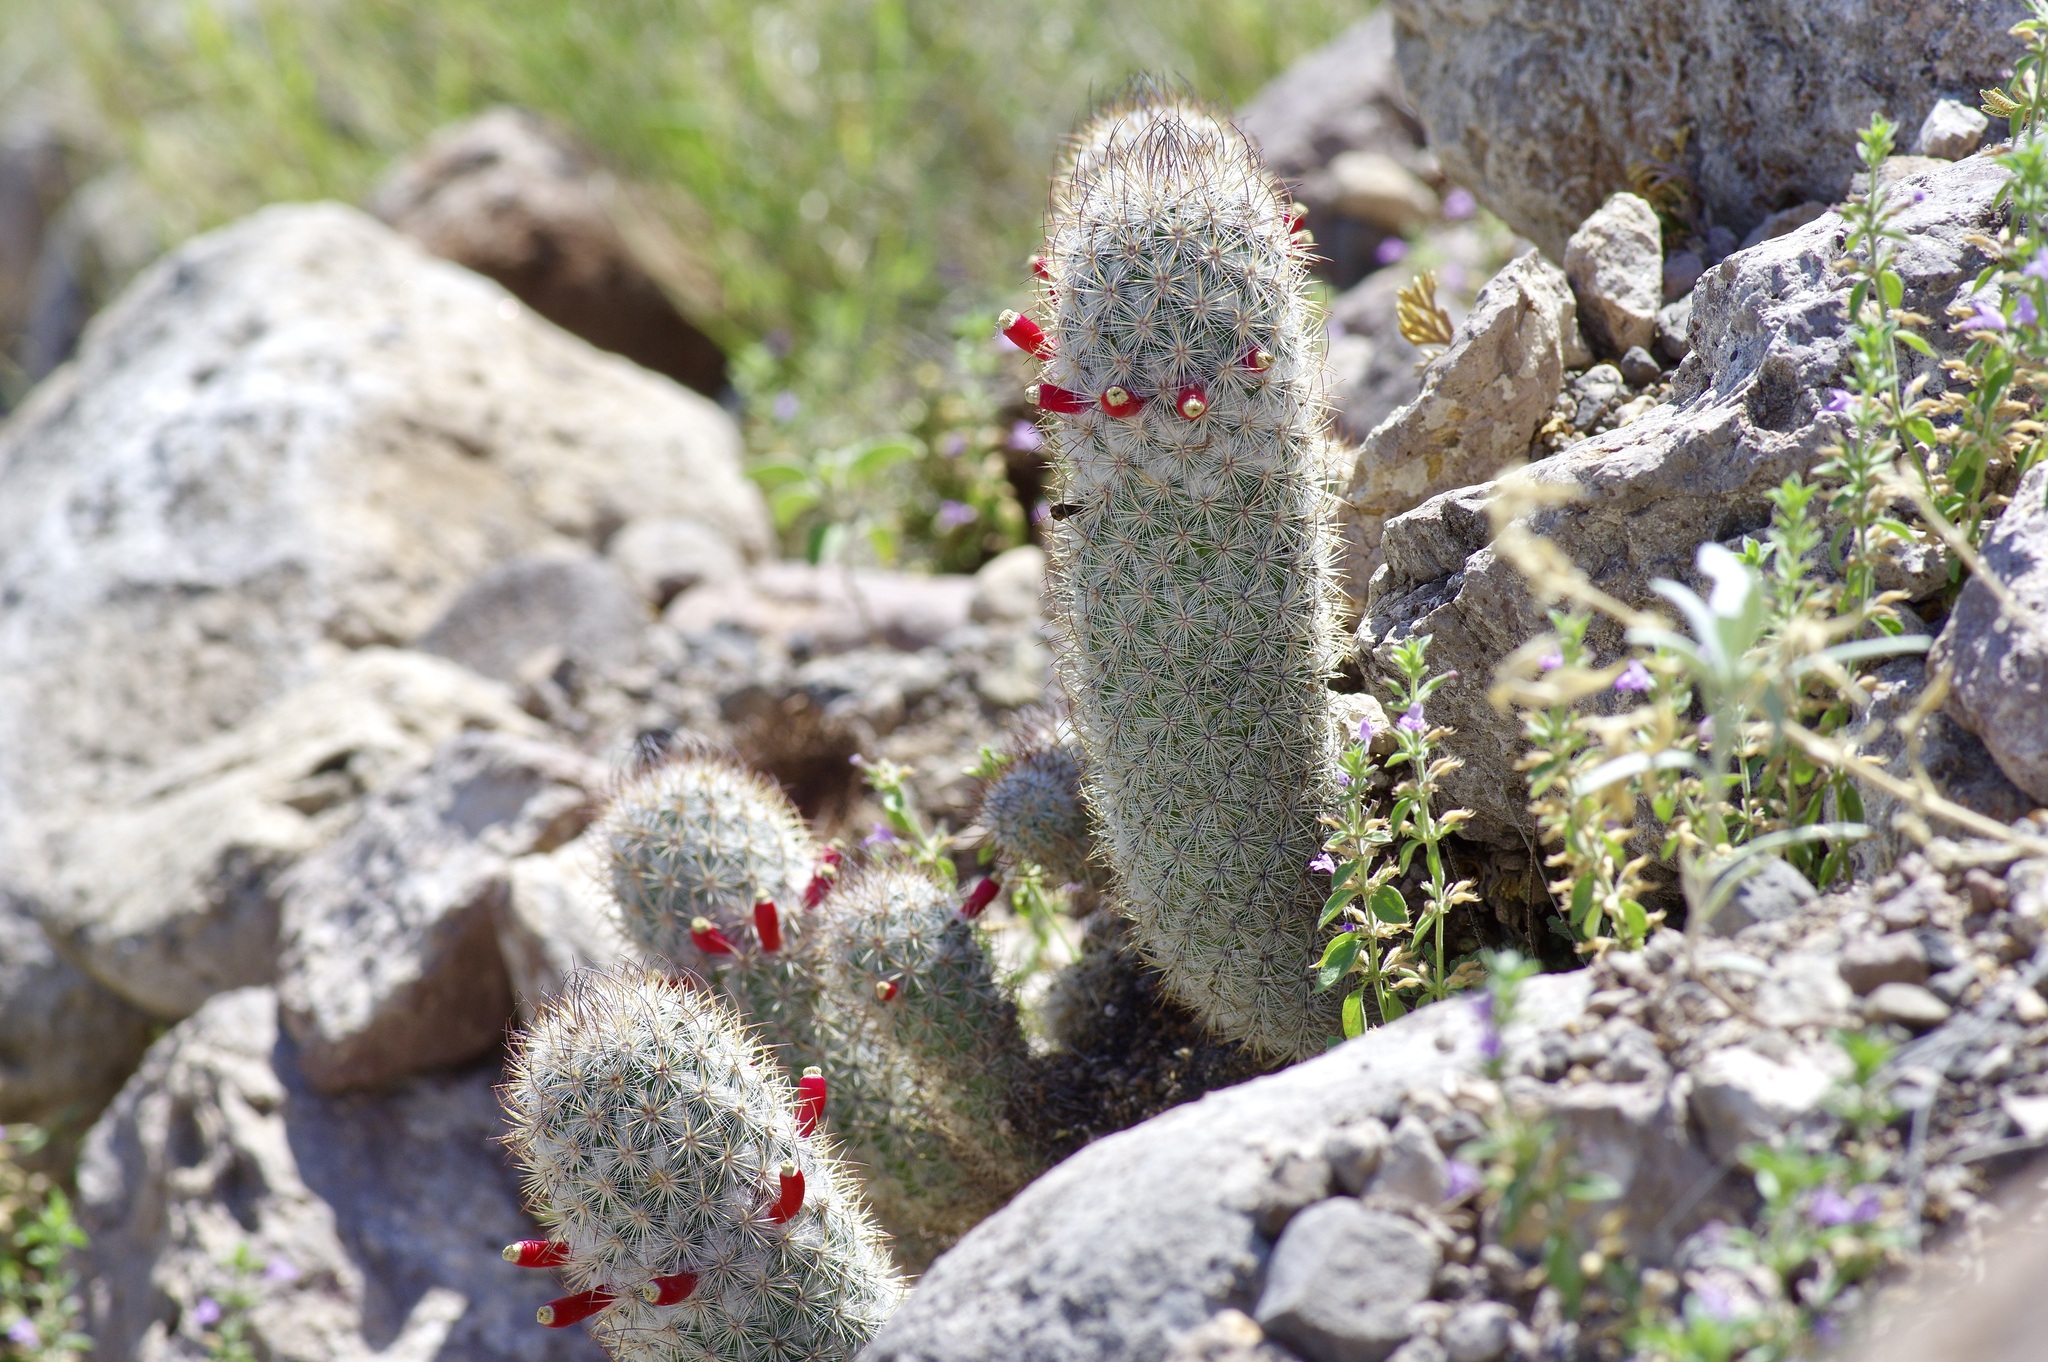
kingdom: Plantae
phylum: Tracheophyta
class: Magnoliopsida
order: Caryophyllales
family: Cactaceae
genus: Mammillaria
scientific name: Mammillaria pottsii
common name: Pott's nipple-cactus
